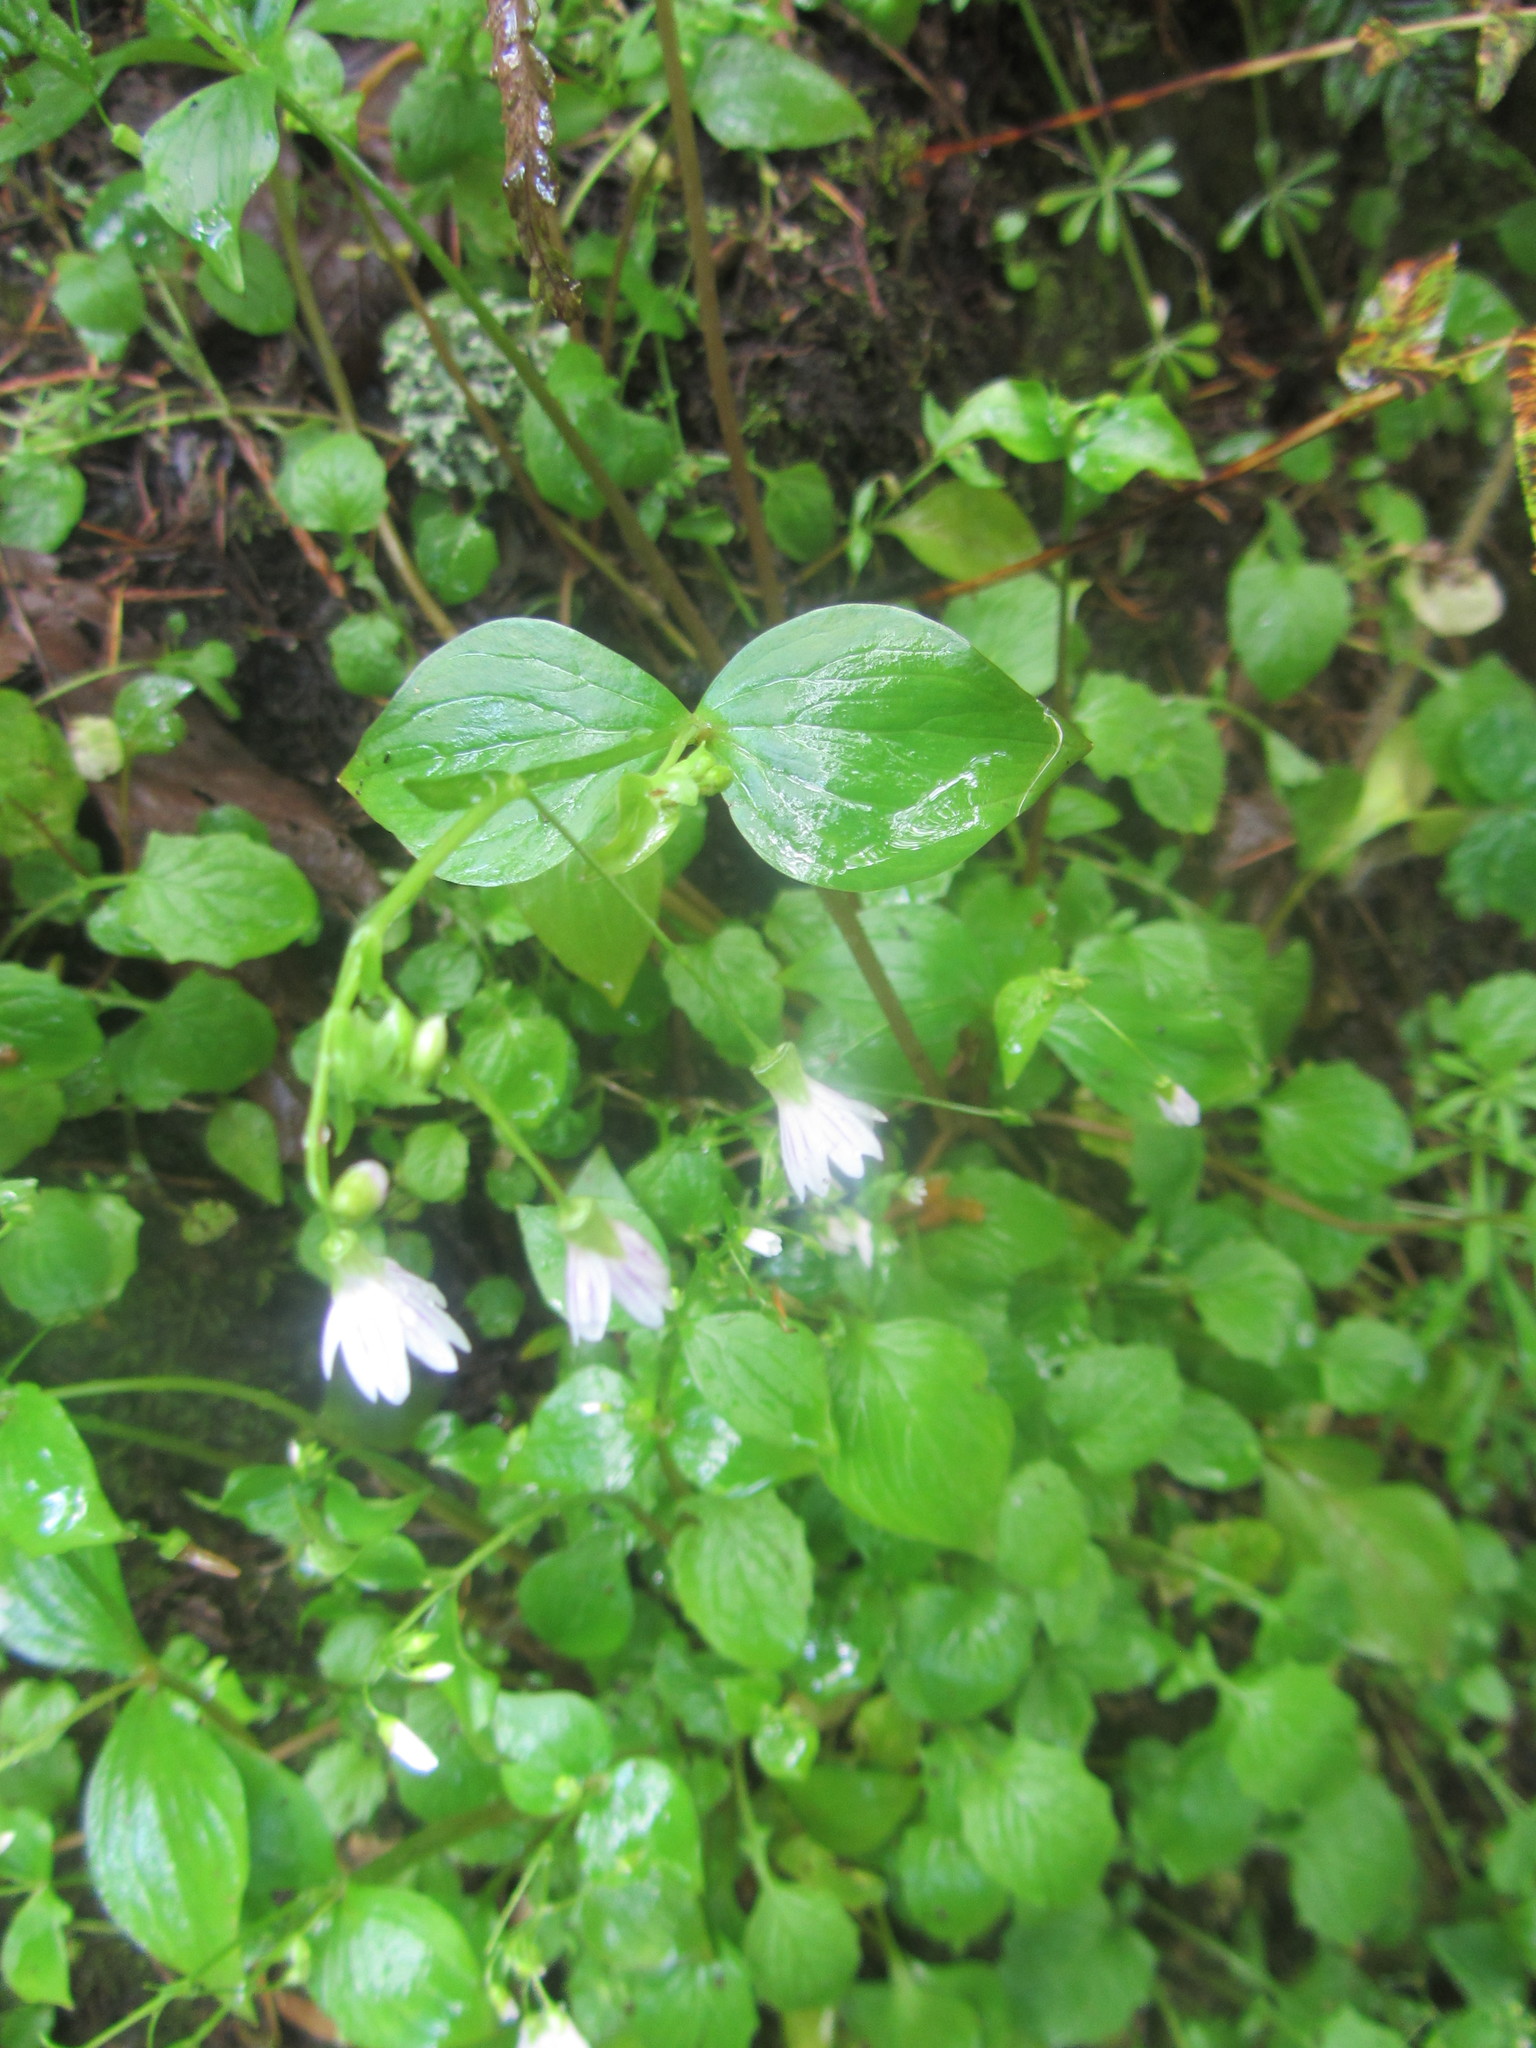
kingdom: Plantae
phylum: Tracheophyta
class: Magnoliopsida
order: Caryophyllales
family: Montiaceae
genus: Claytonia
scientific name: Claytonia sibirica
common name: Pink purslane
